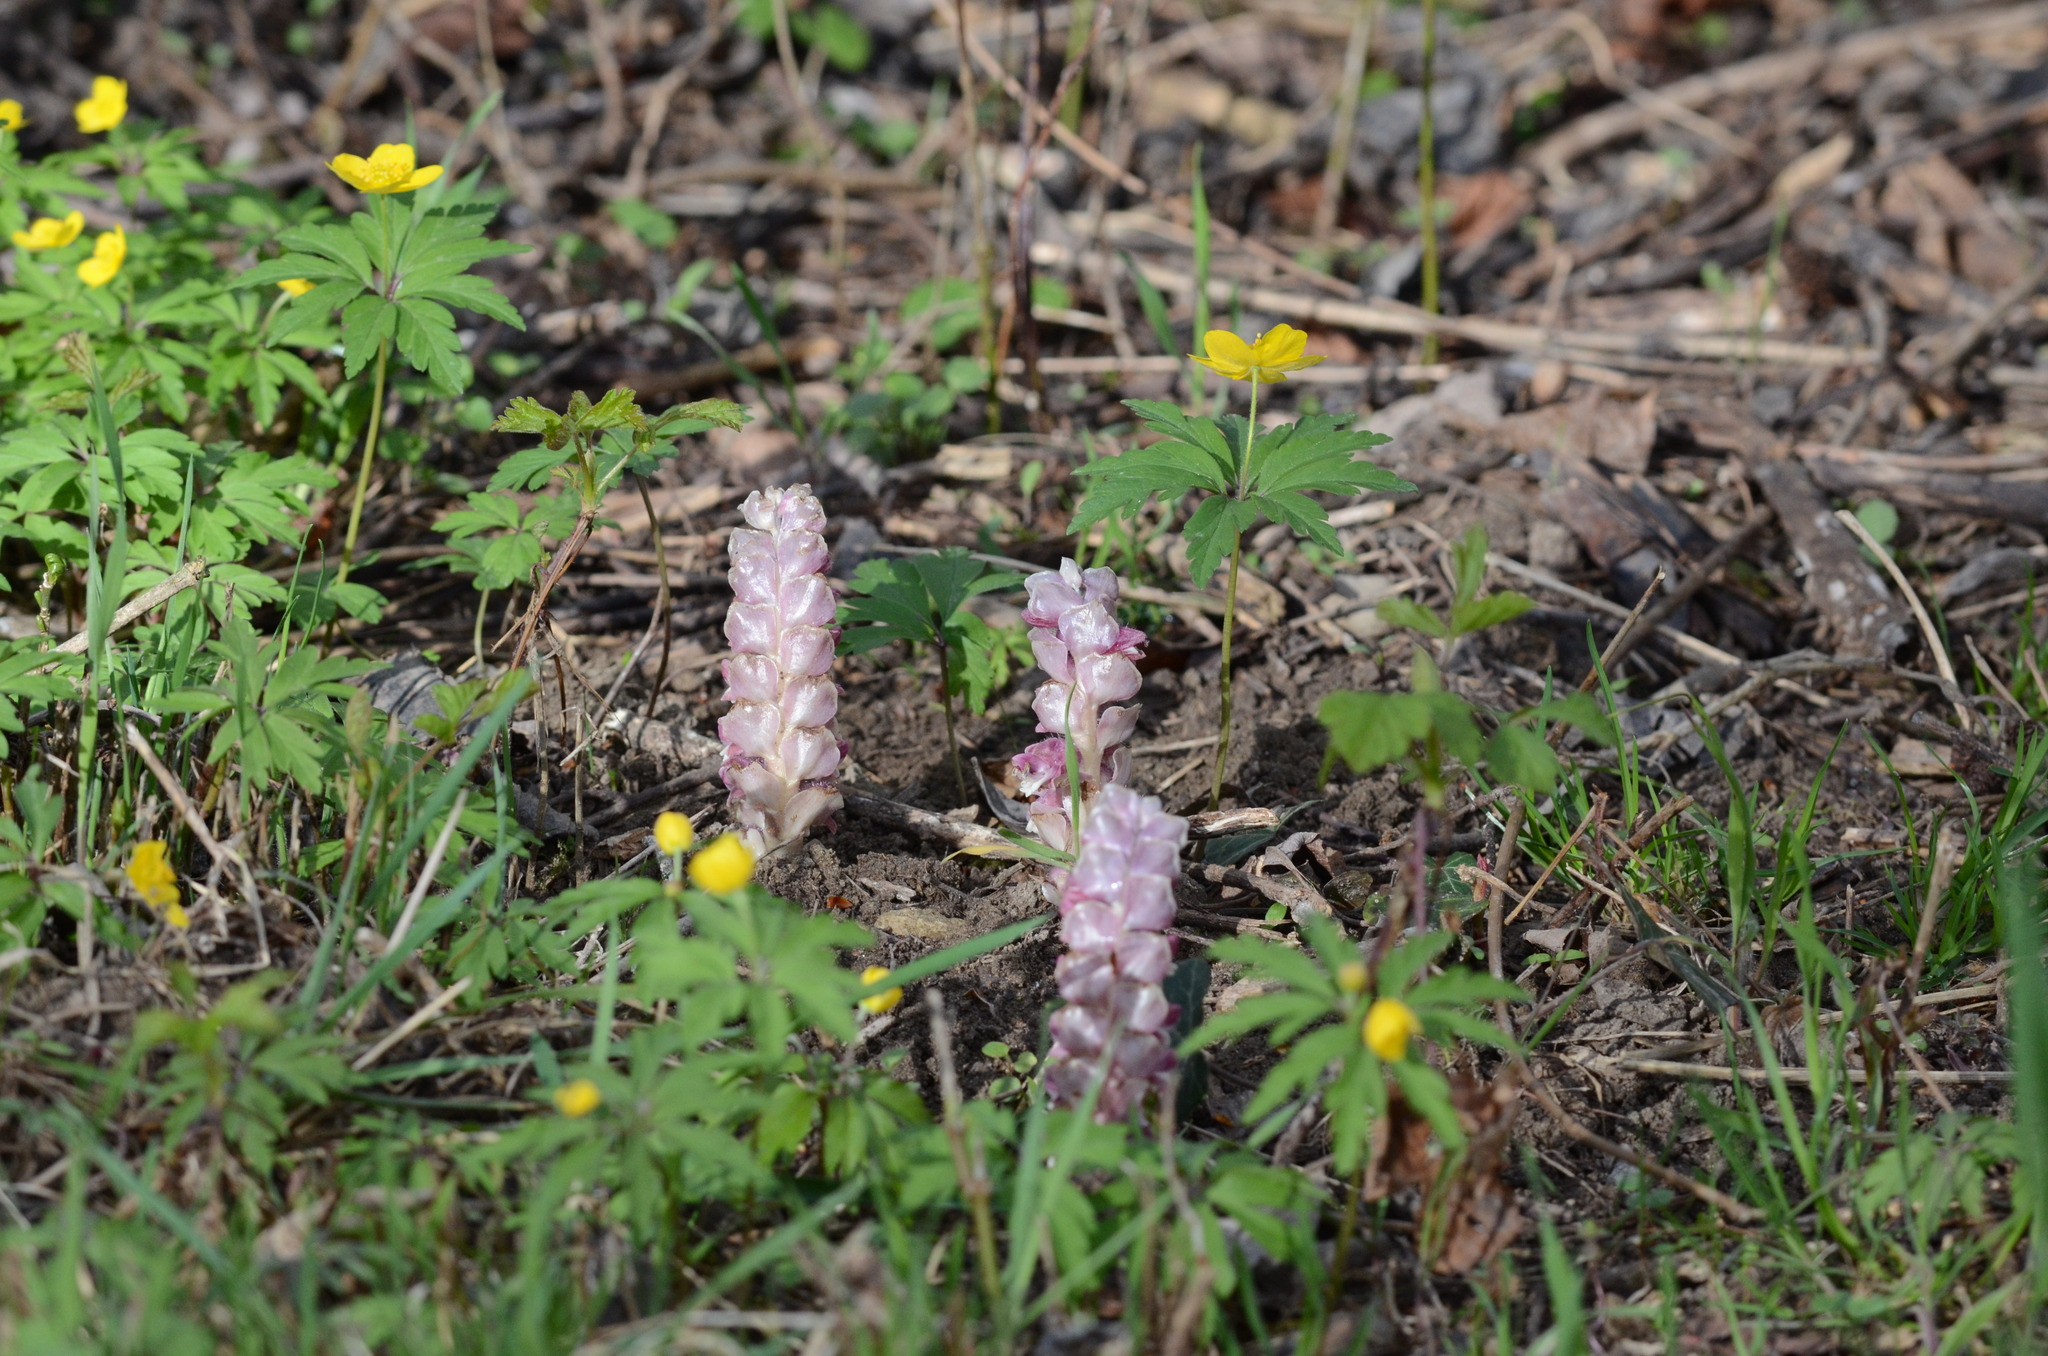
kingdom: Plantae
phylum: Tracheophyta
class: Magnoliopsida
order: Lamiales
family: Orobanchaceae
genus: Lathraea
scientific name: Lathraea squamaria
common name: Toothwort
